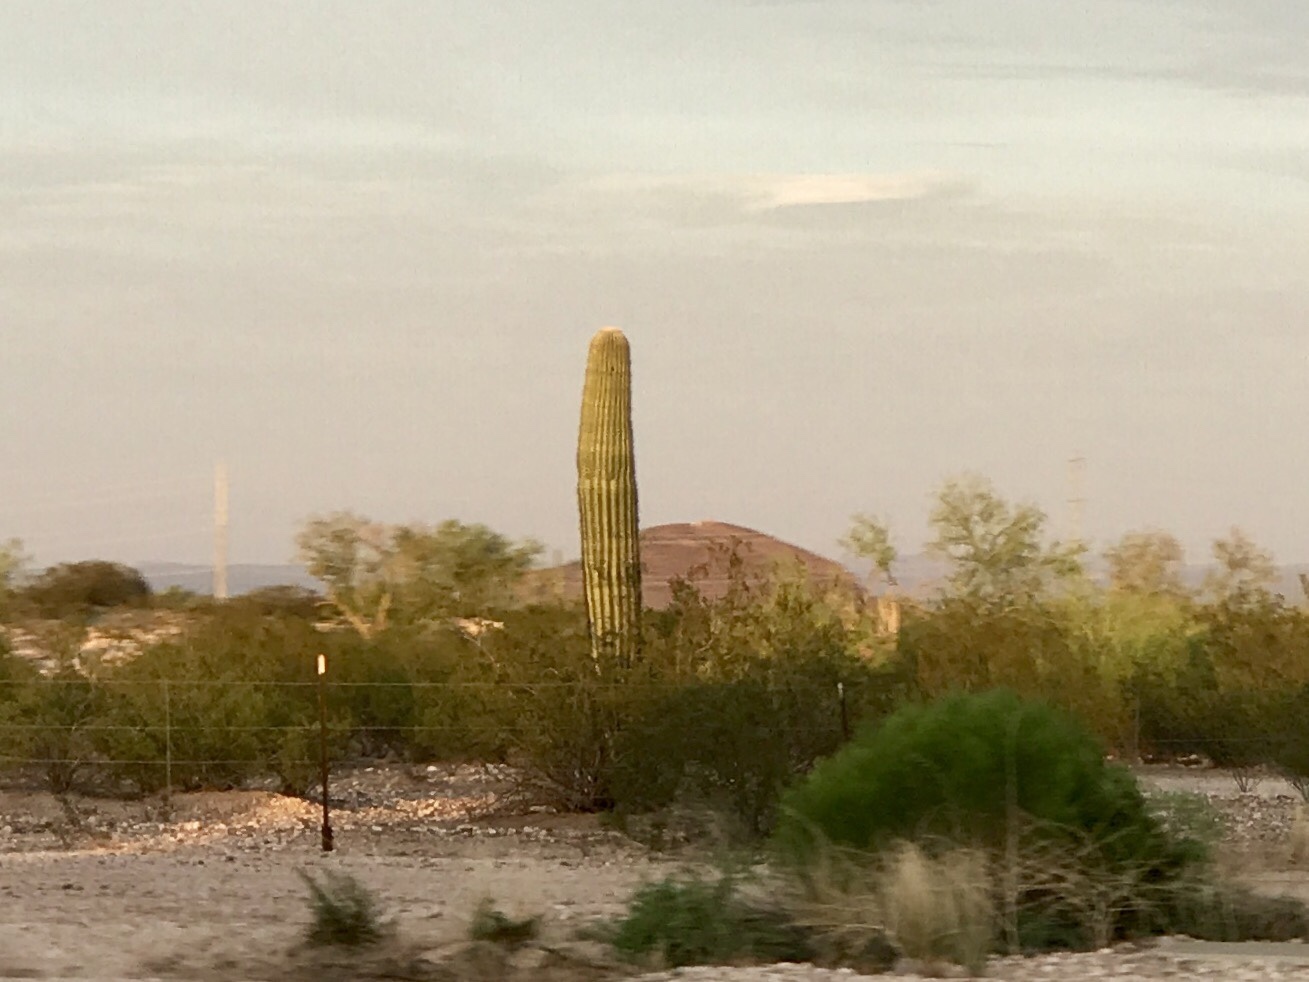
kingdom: Plantae
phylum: Tracheophyta
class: Magnoliopsida
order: Caryophyllales
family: Cactaceae
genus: Carnegiea
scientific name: Carnegiea gigantea
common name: Saguaro
